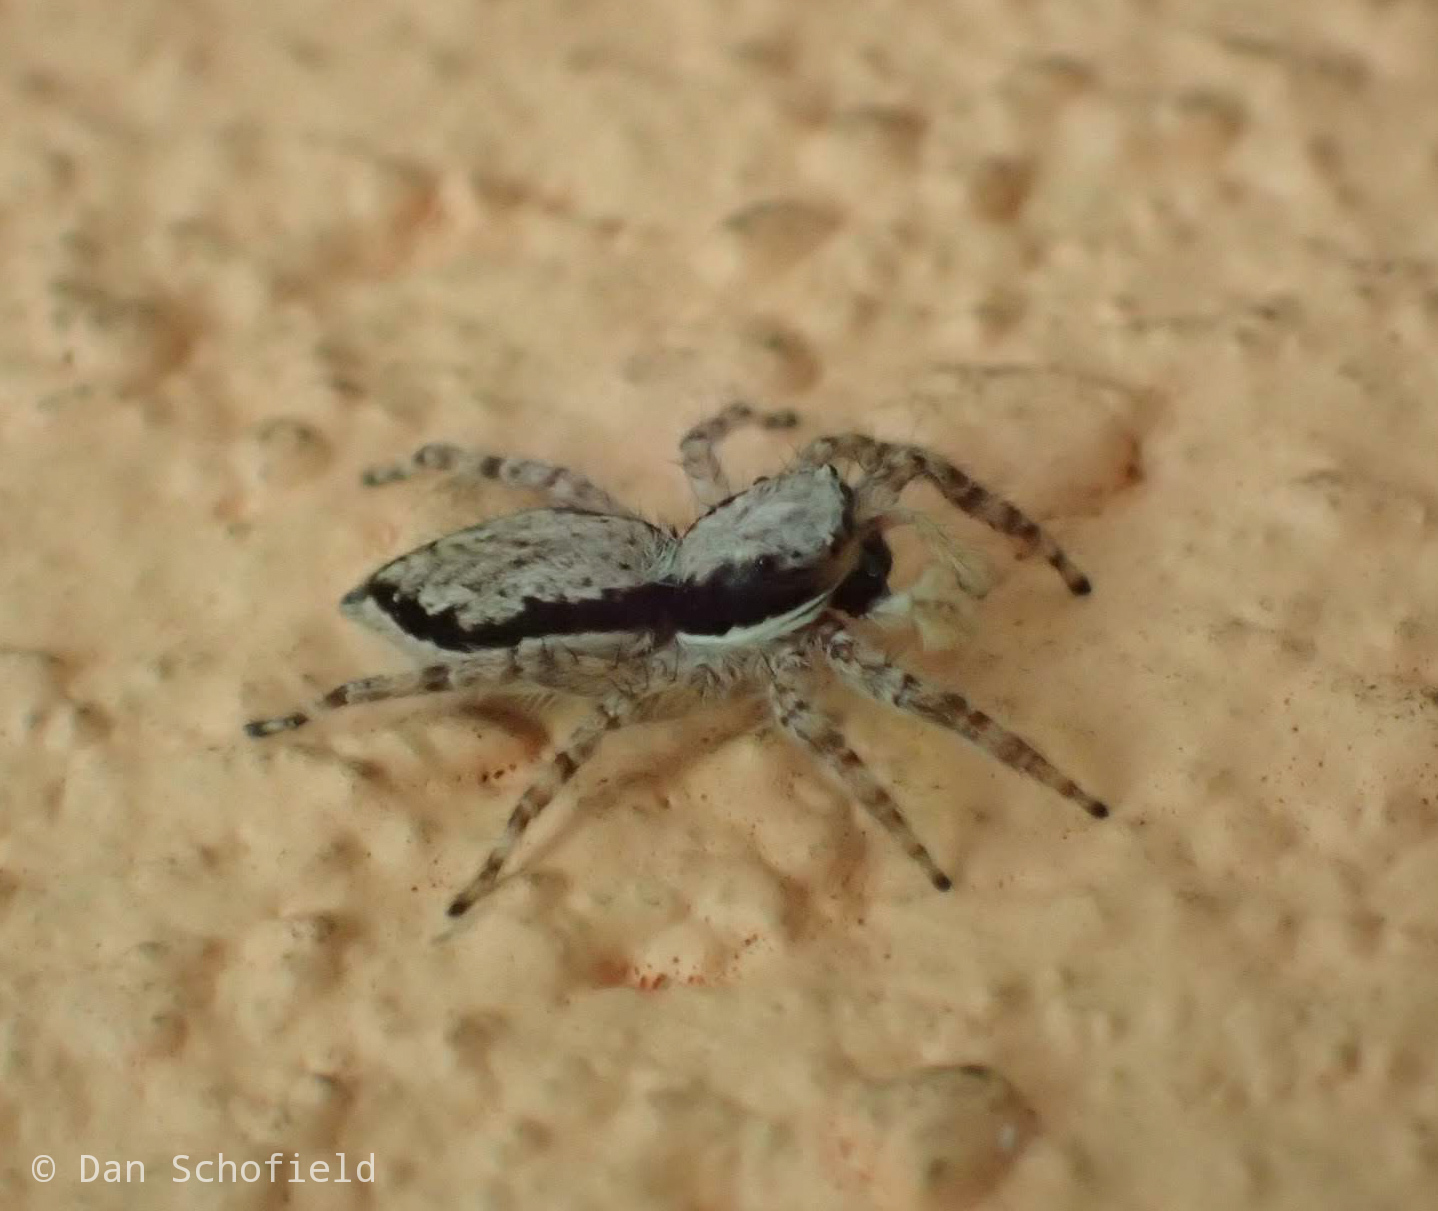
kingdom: Animalia
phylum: Arthropoda
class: Arachnida
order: Araneae
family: Salticidae
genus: Menemerus
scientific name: Menemerus bivittatus
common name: Gray wall jumper
